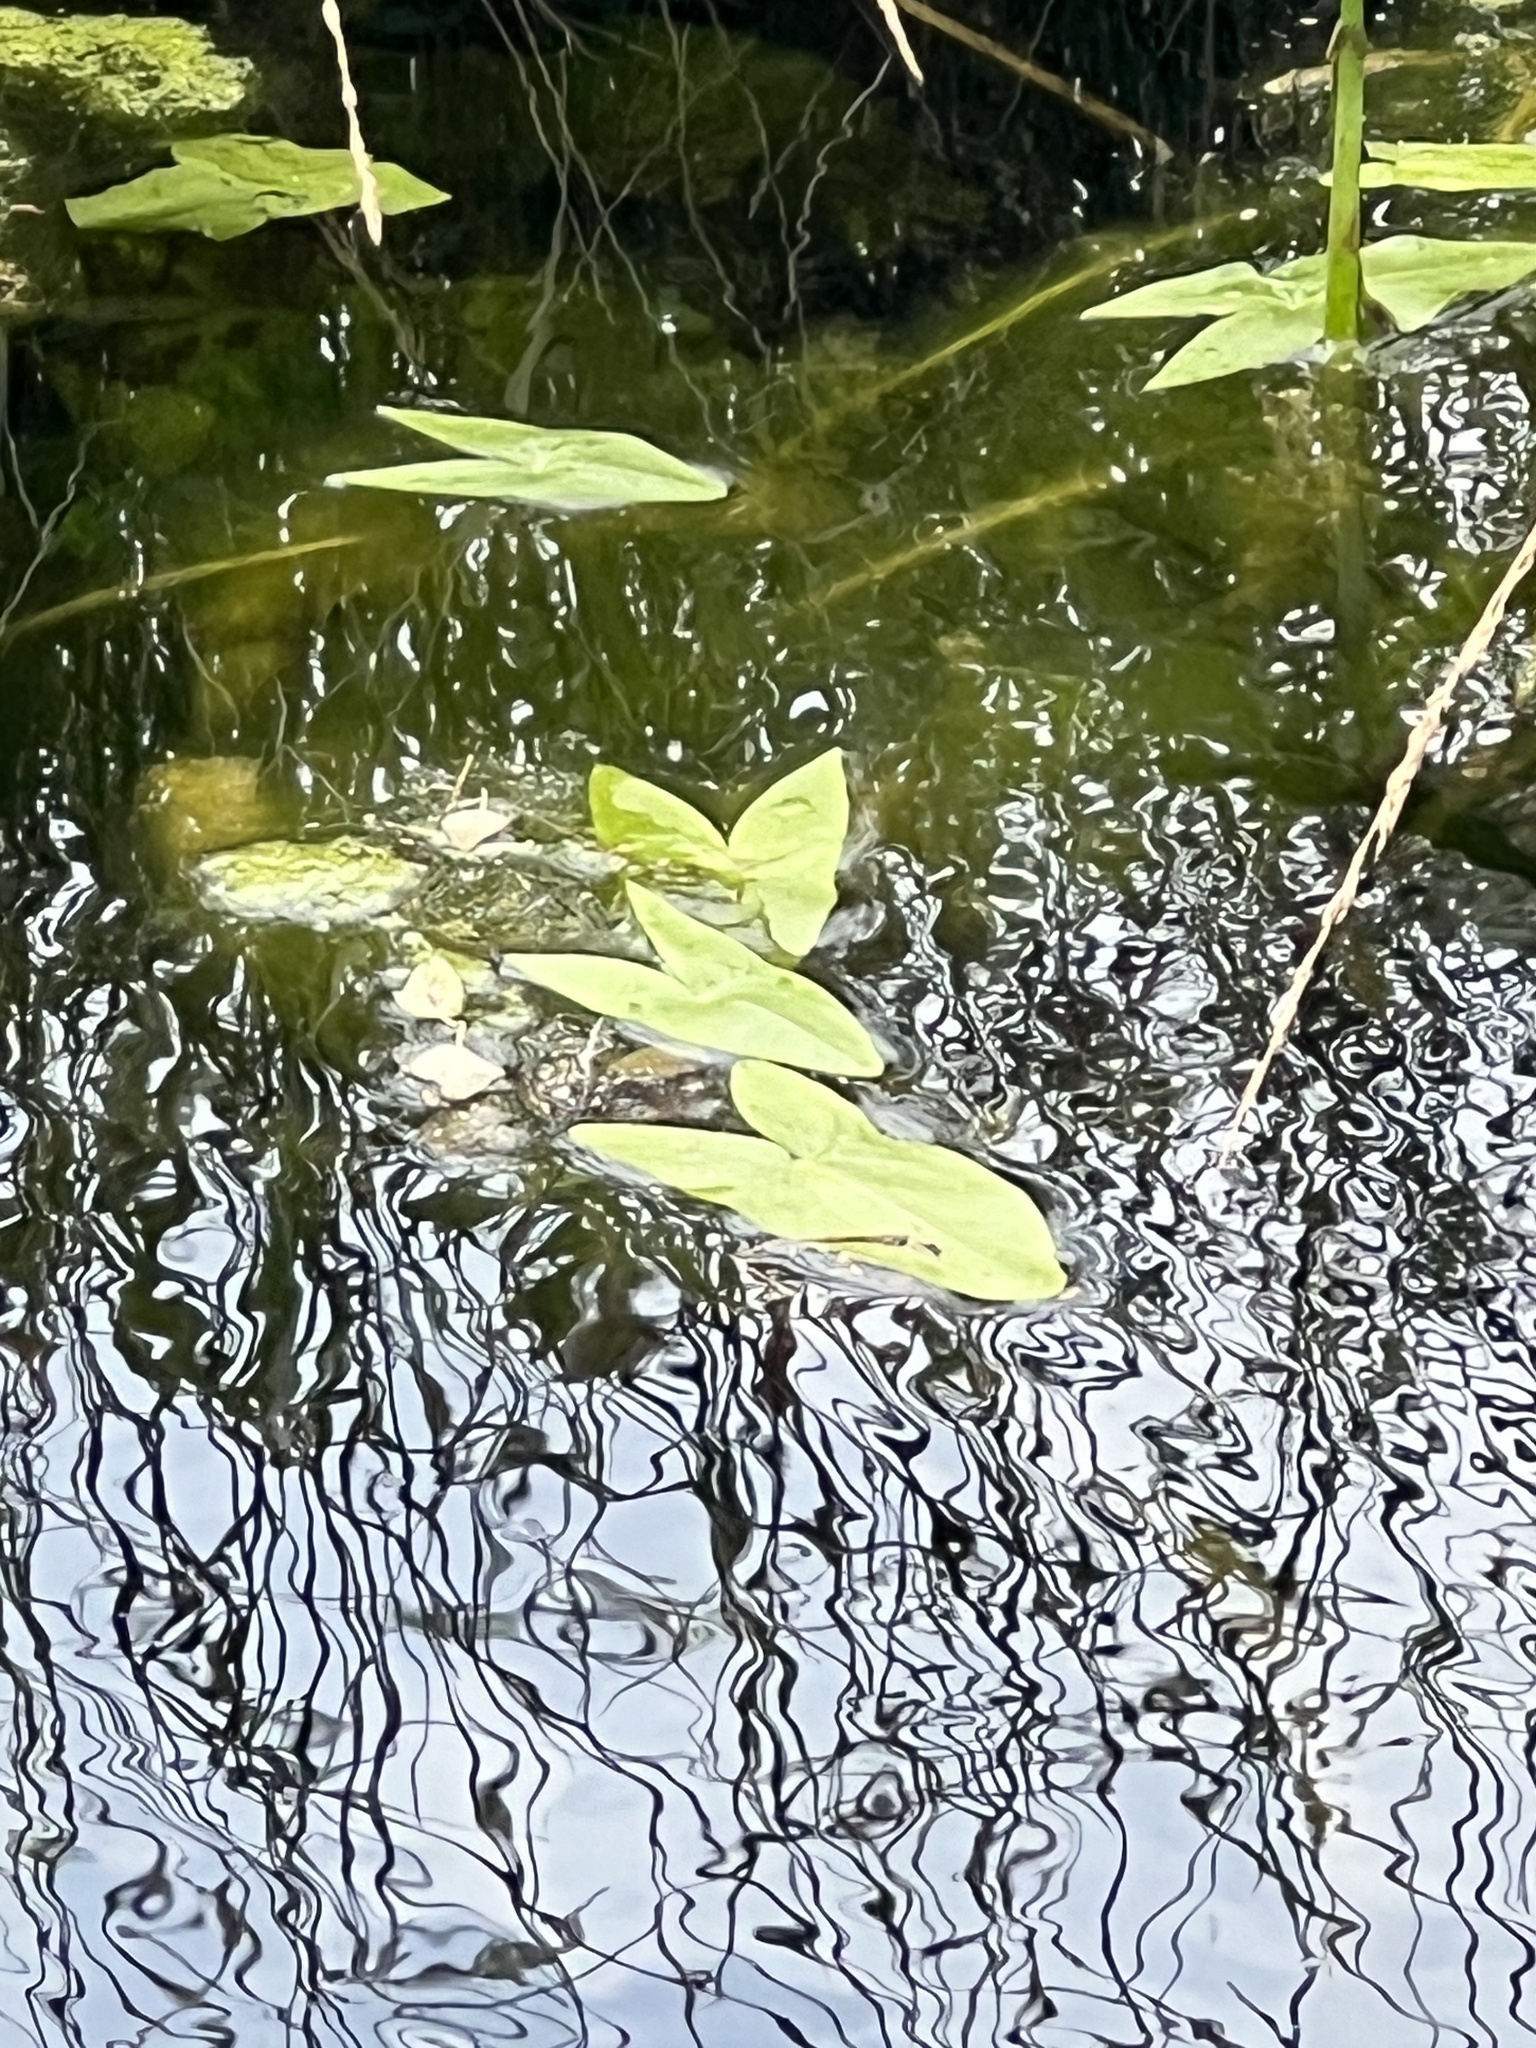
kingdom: Plantae
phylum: Tracheophyta
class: Liliopsida
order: Alismatales
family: Alismataceae
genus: Sagittaria
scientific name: Sagittaria sagittifolia
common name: Arrowhead
